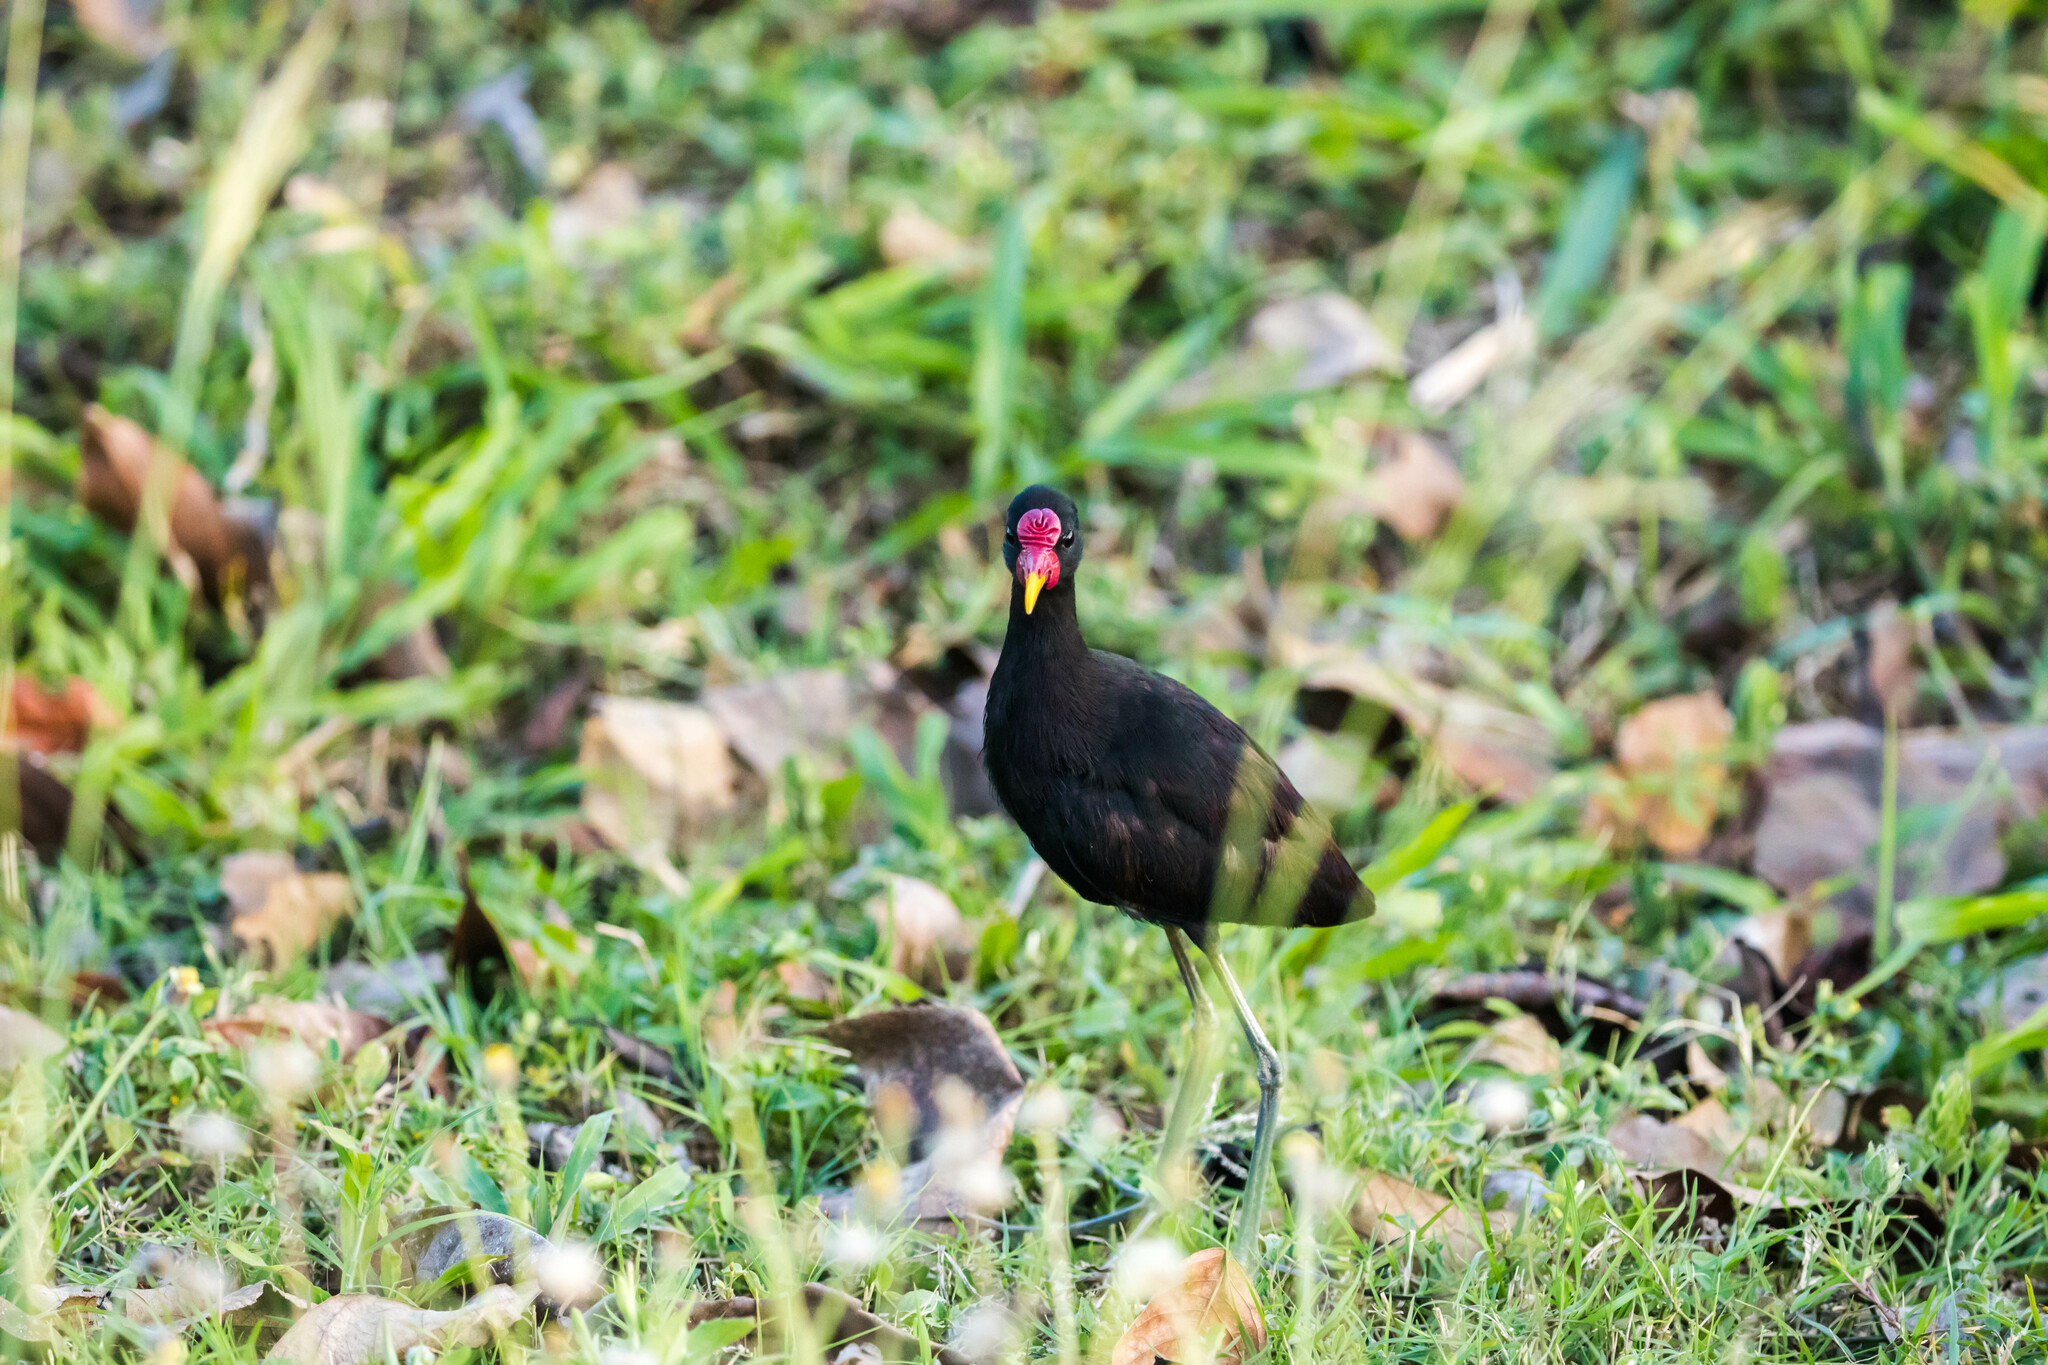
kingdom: Animalia
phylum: Chordata
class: Aves
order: Charadriiformes
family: Jacanidae
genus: Jacana
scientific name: Jacana jacana
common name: Wattled jacana
